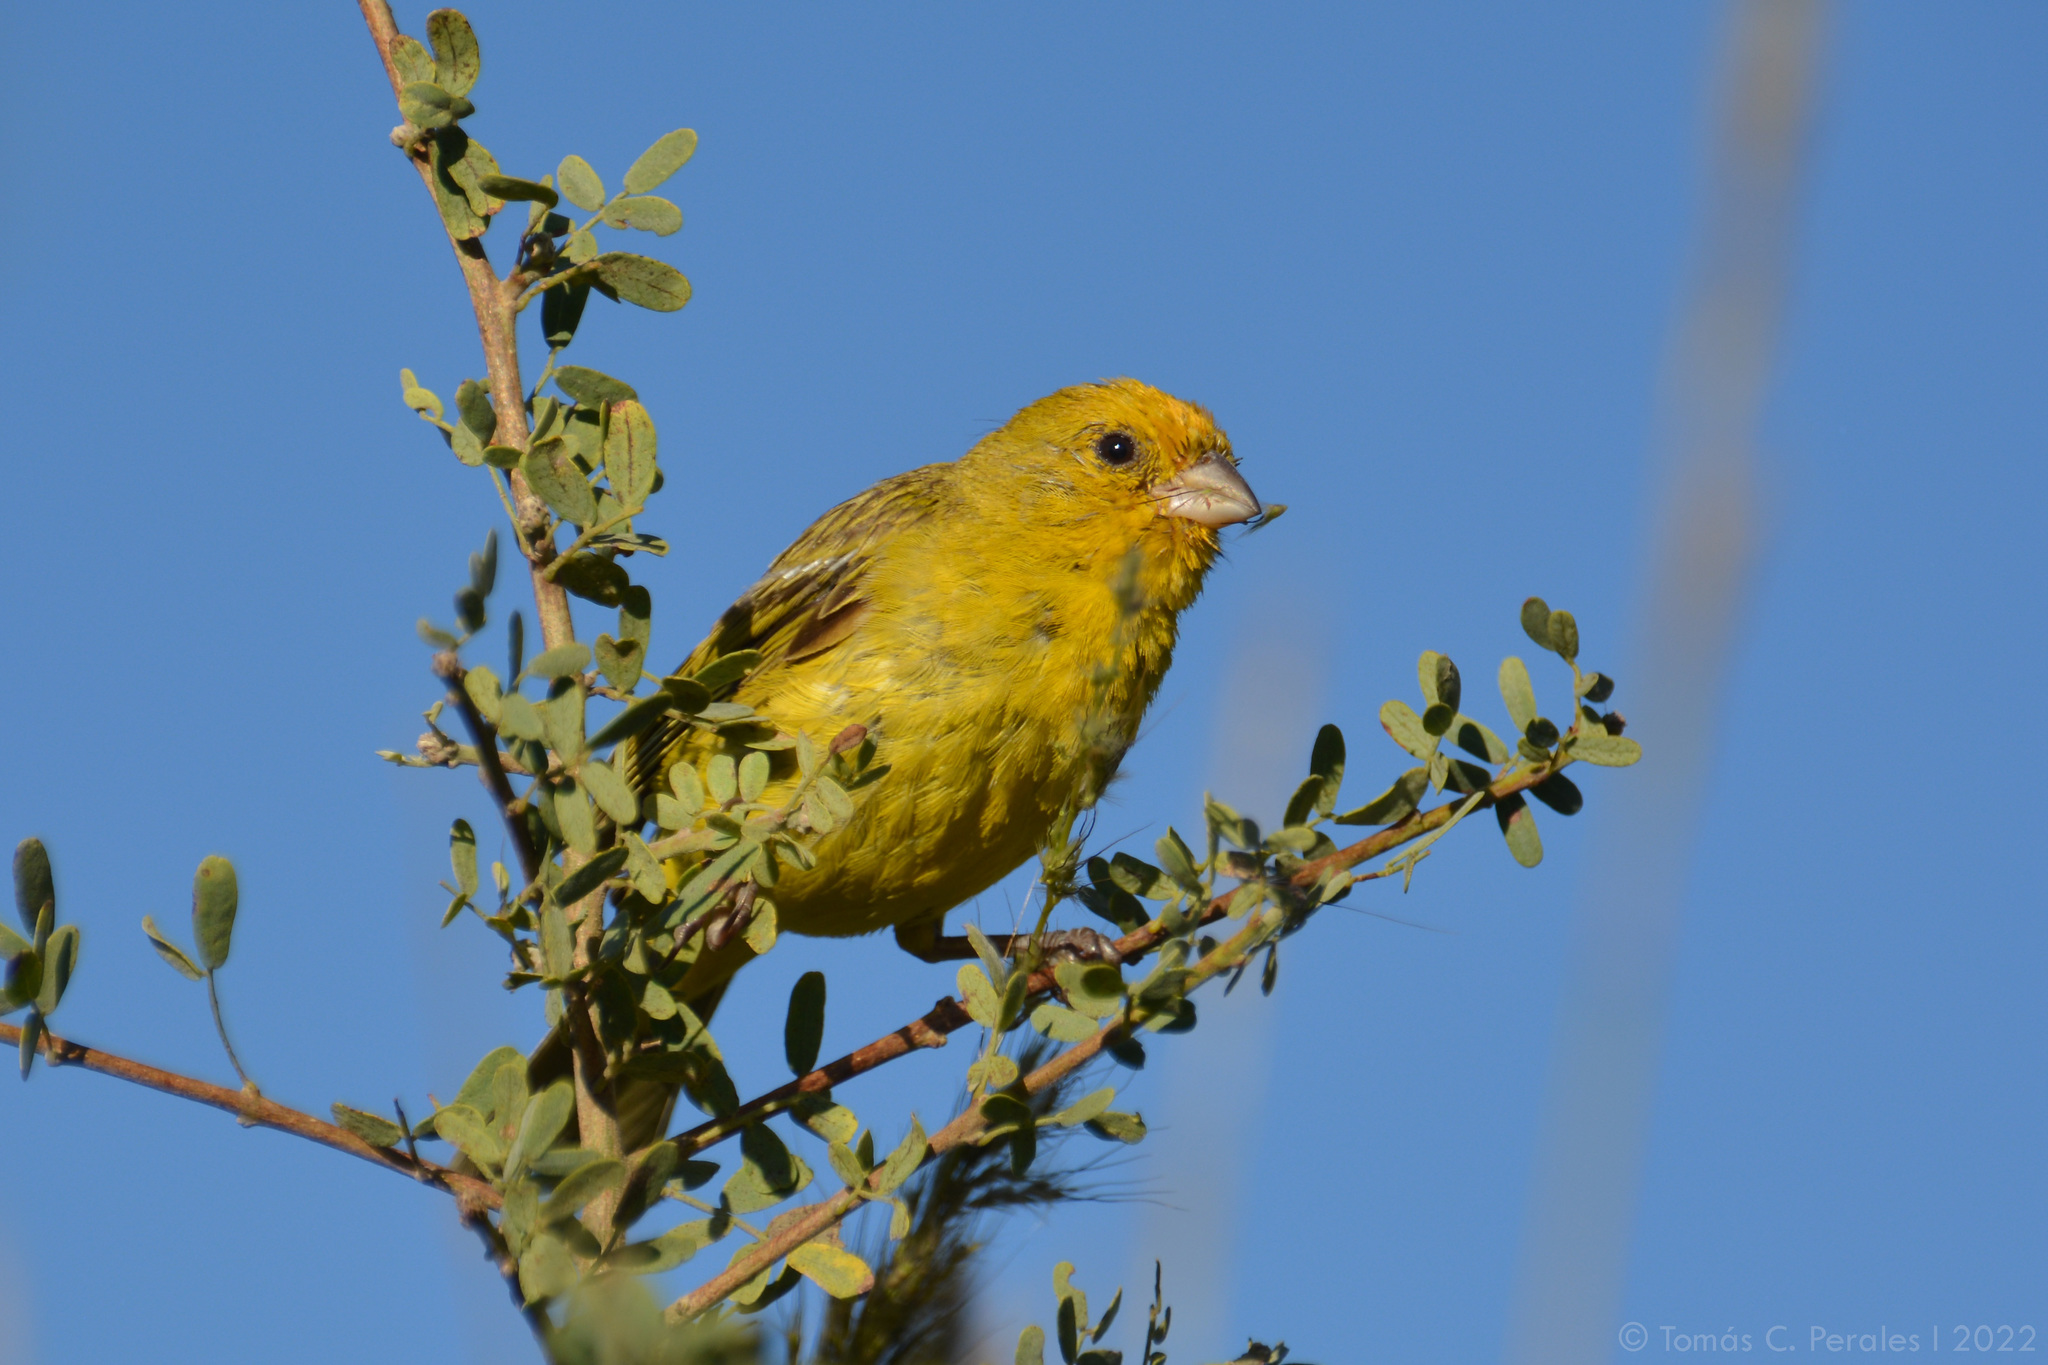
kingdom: Animalia
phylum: Chordata
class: Aves
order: Passeriformes
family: Thraupidae
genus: Sicalis
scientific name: Sicalis flaveola
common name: Saffron finch
